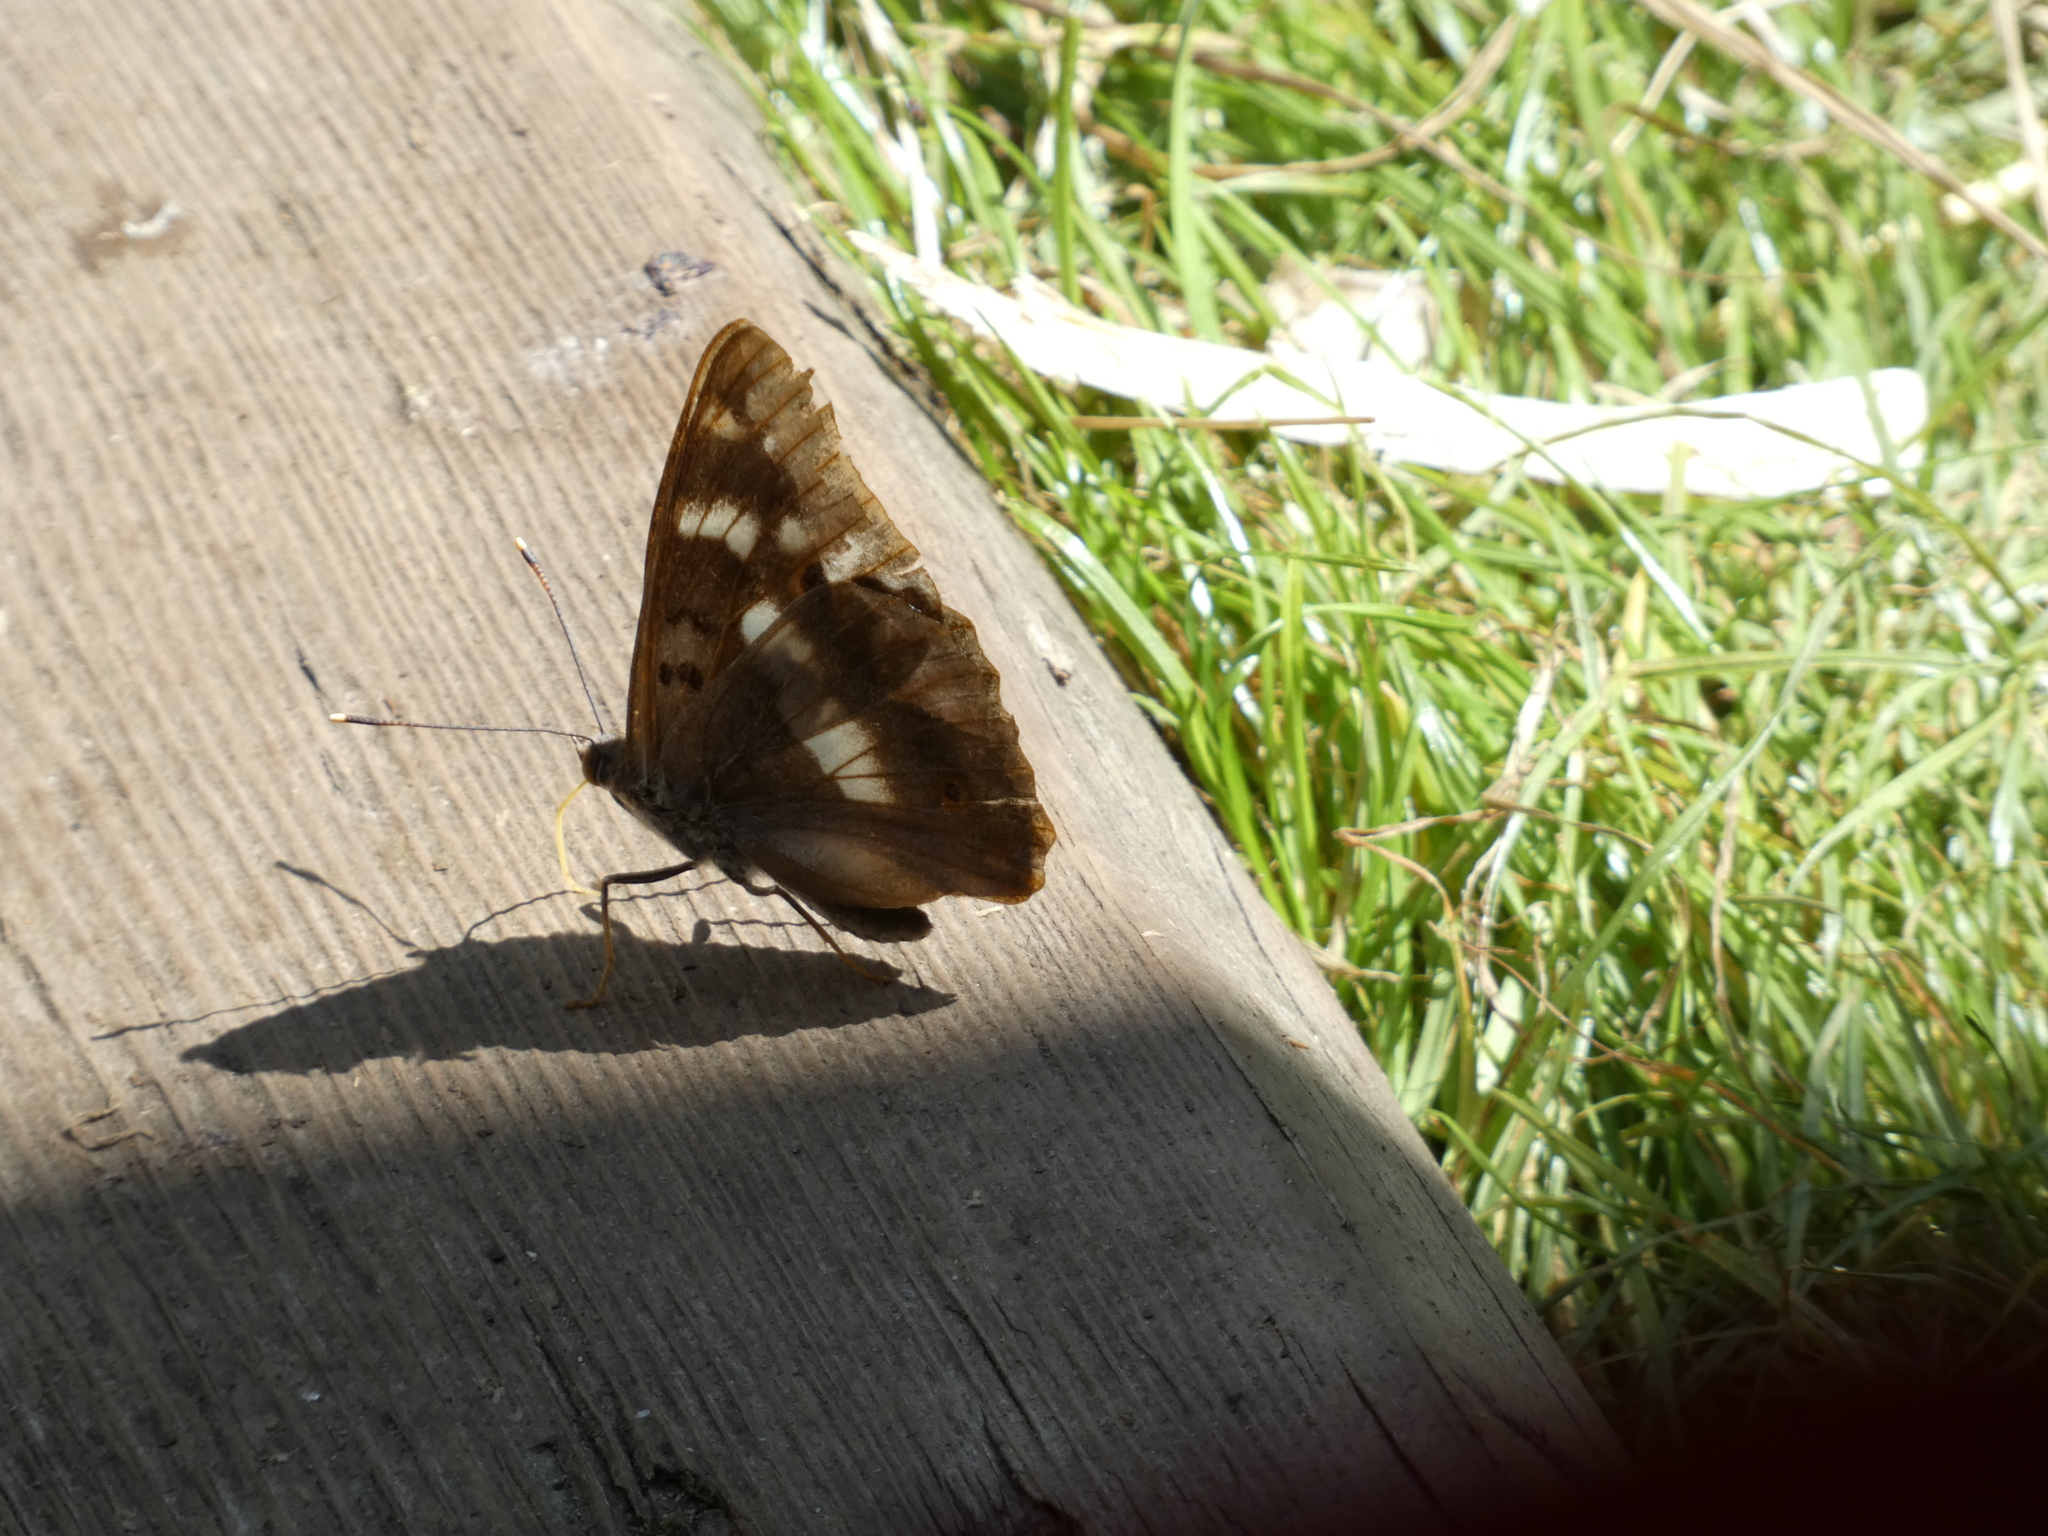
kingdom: Animalia
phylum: Arthropoda
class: Insecta
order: Lepidoptera
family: Nymphalidae
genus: Apatura
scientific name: Apatura ilia
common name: Lesser purple emperor
